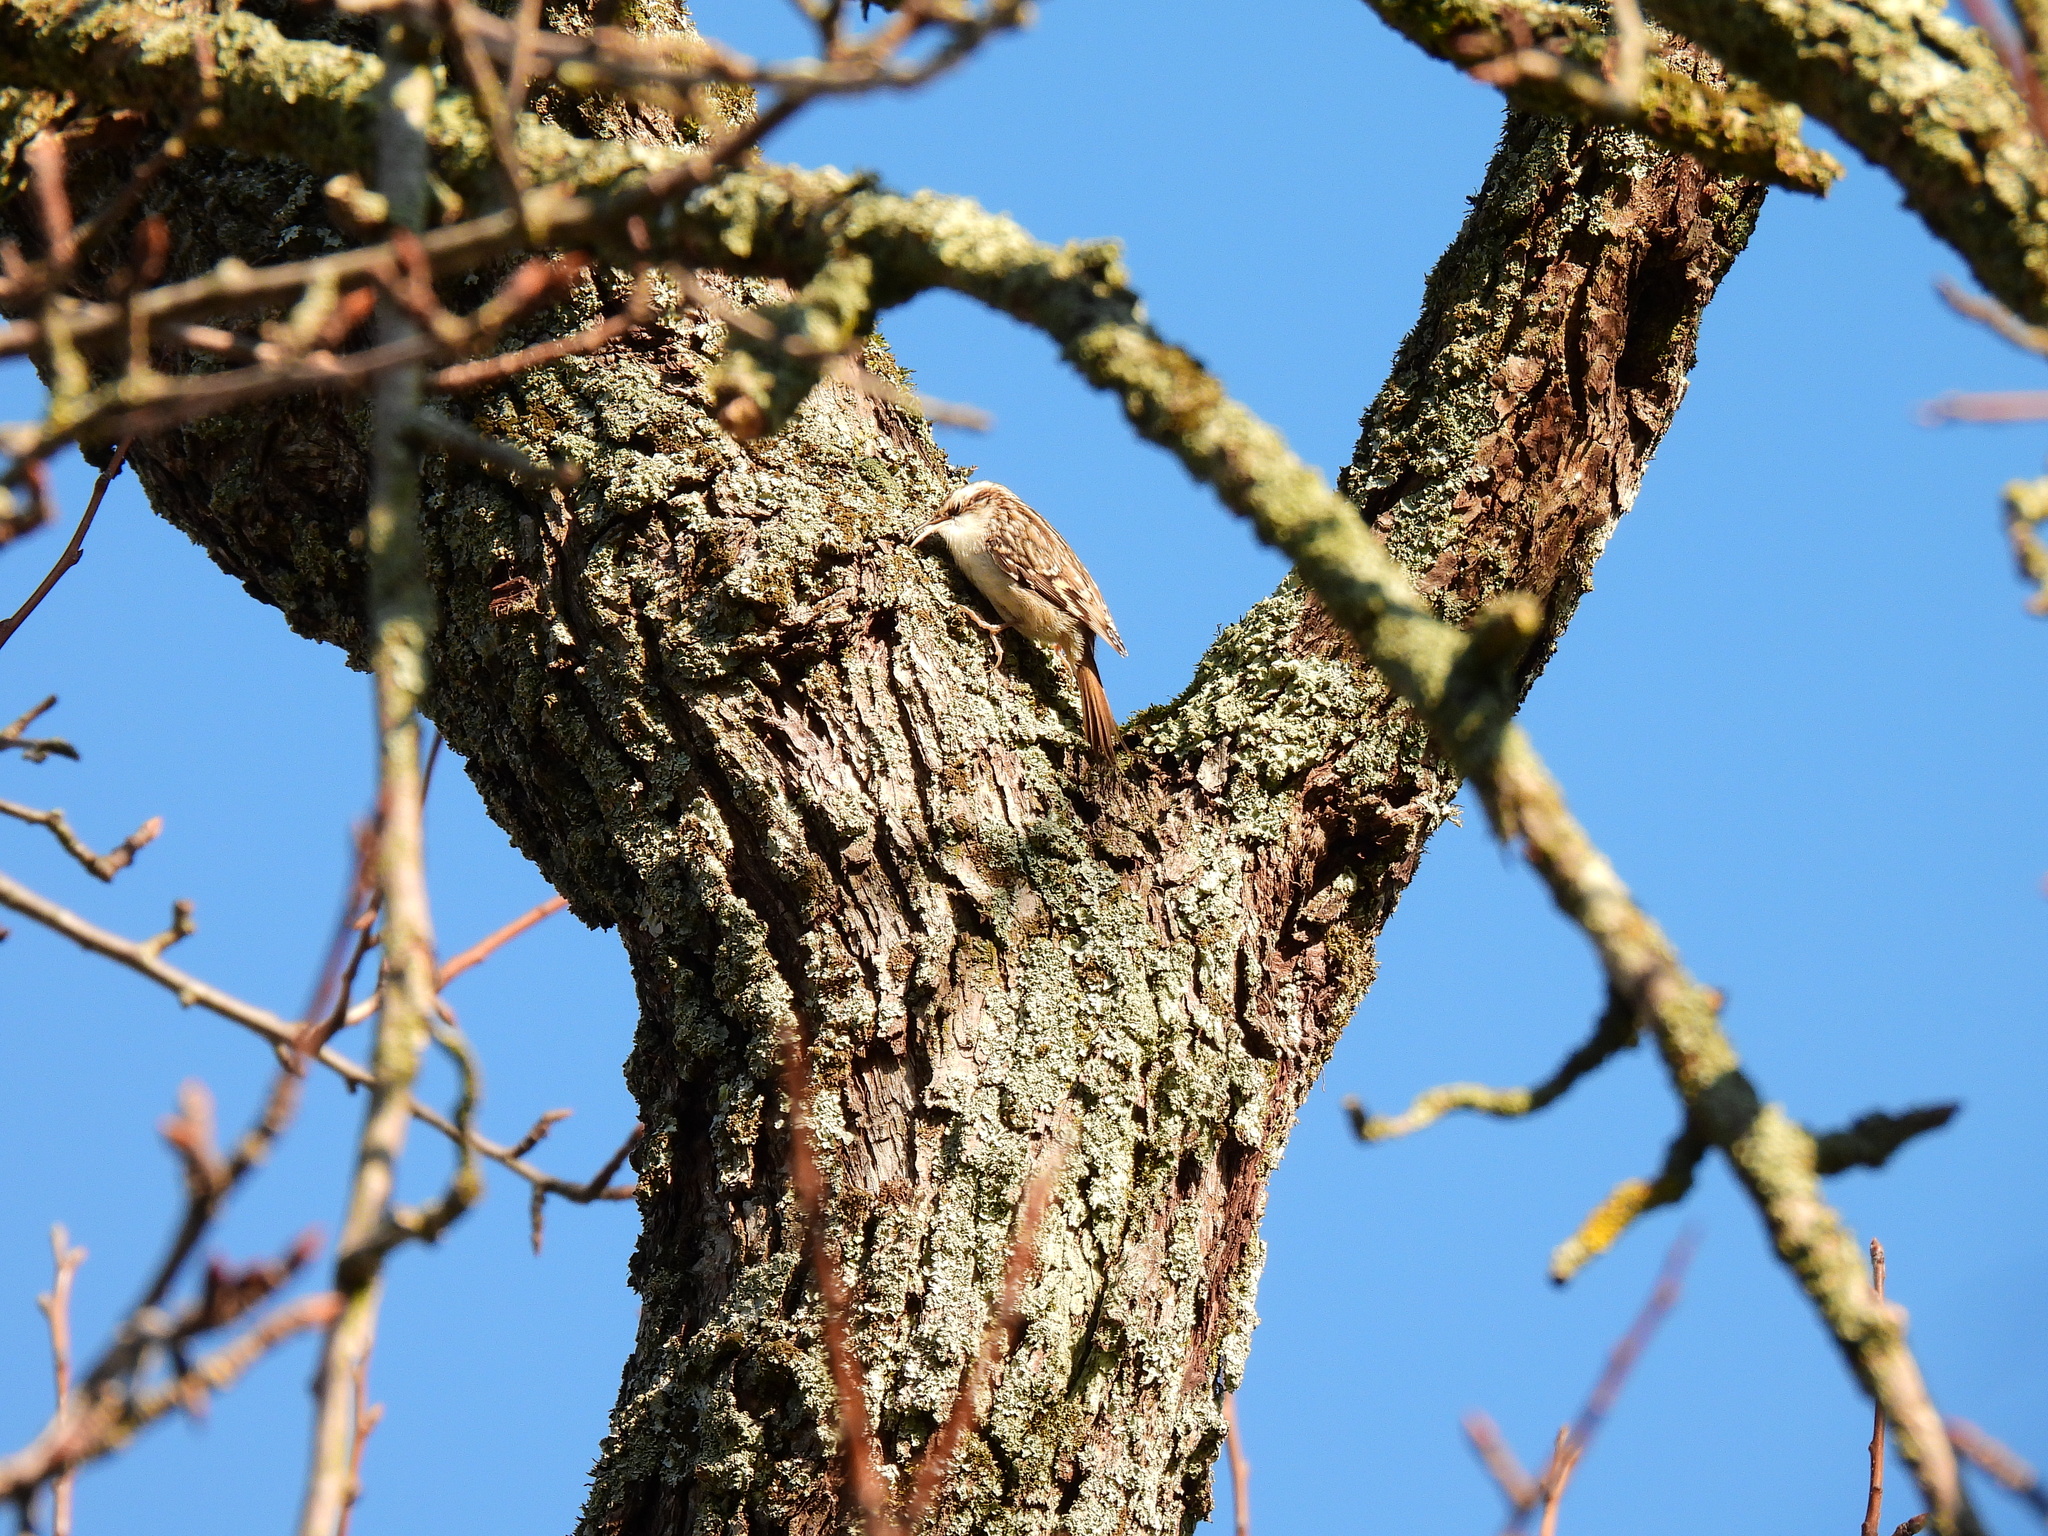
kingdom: Animalia
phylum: Chordata
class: Aves
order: Passeriformes
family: Certhiidae
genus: Certhia
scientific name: Certhia brachydactyla
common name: Short-toed treecreeper
